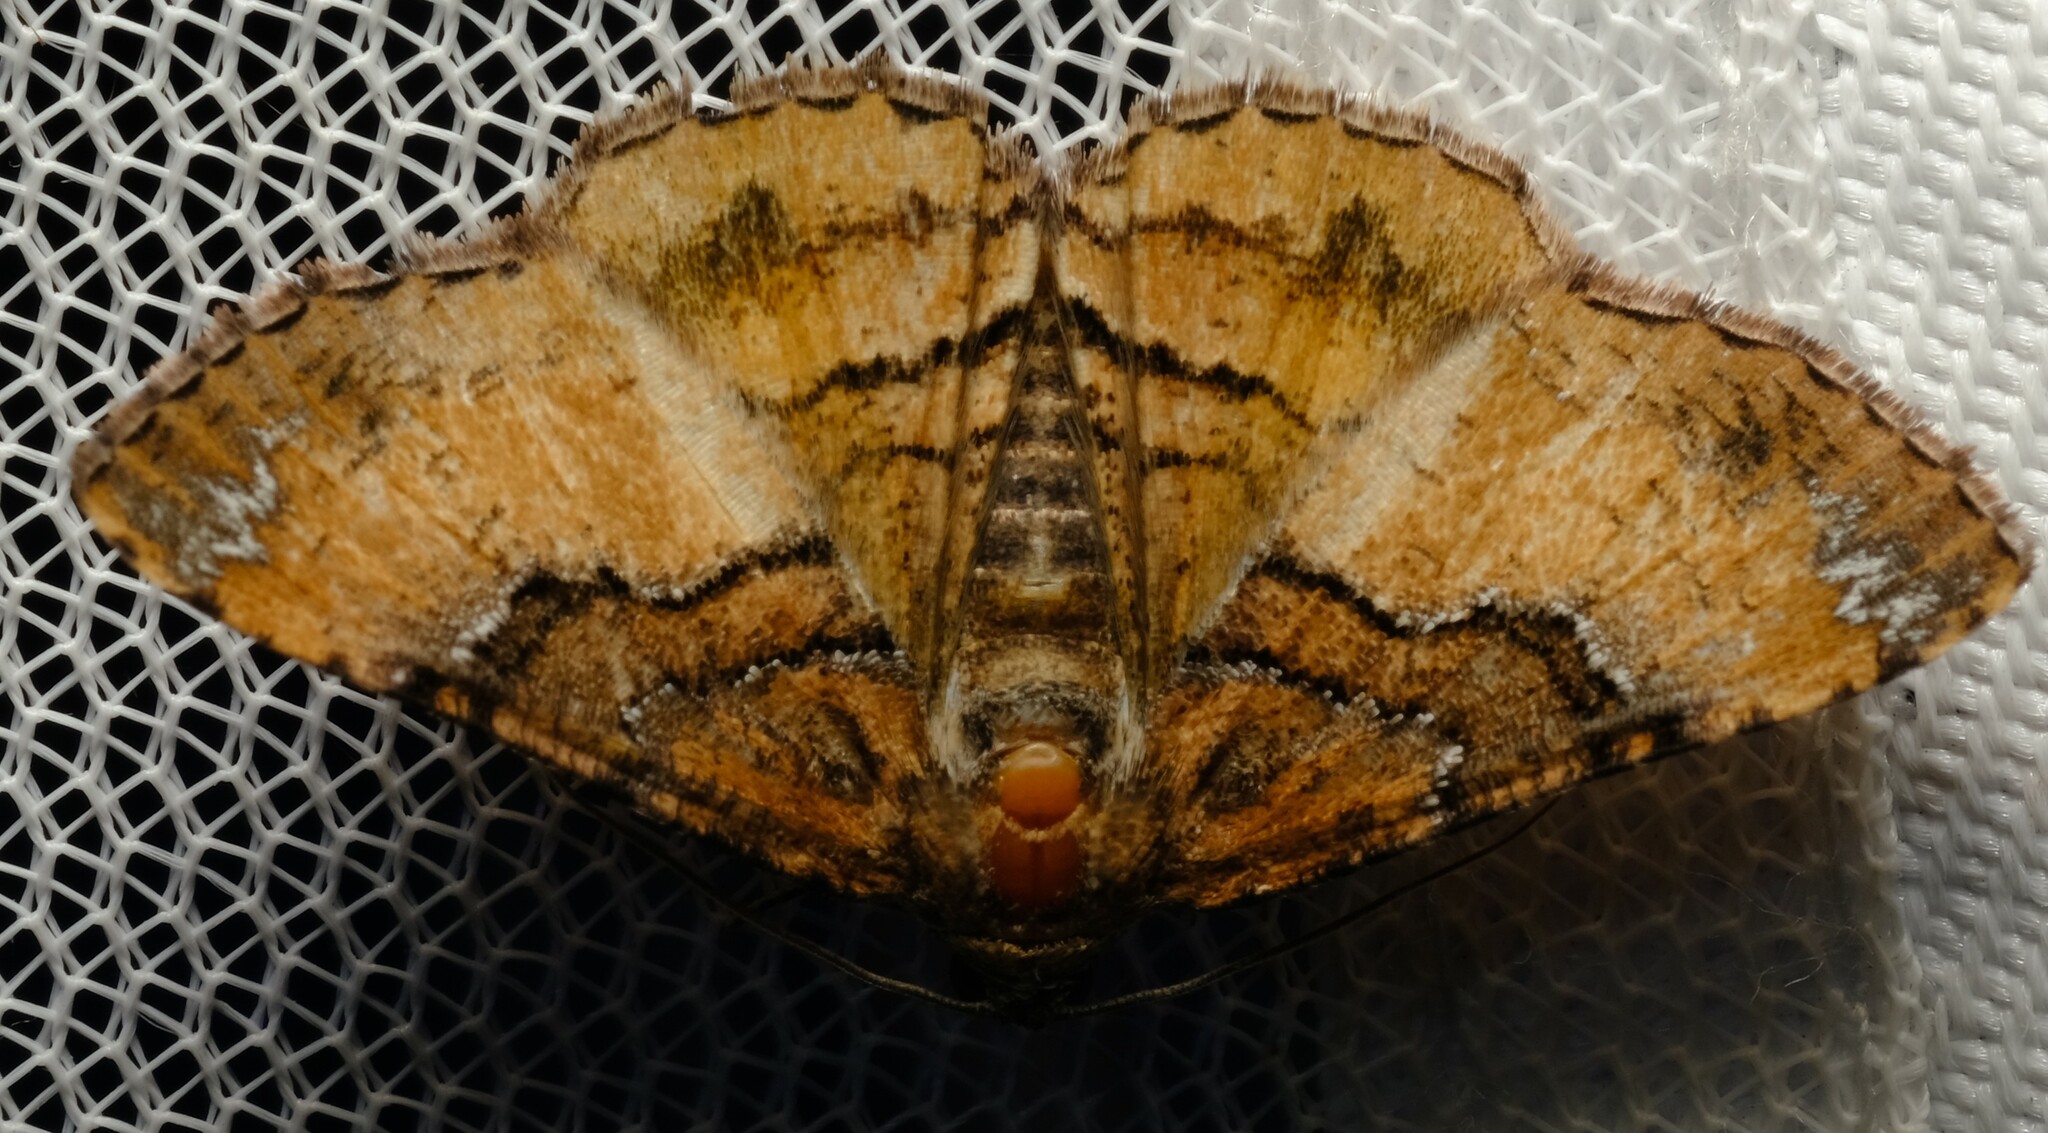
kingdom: Animalia
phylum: Arthropoda
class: Insecta
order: Lepidoptera
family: Geometridae
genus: Aporoctena
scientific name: Aporoctena
